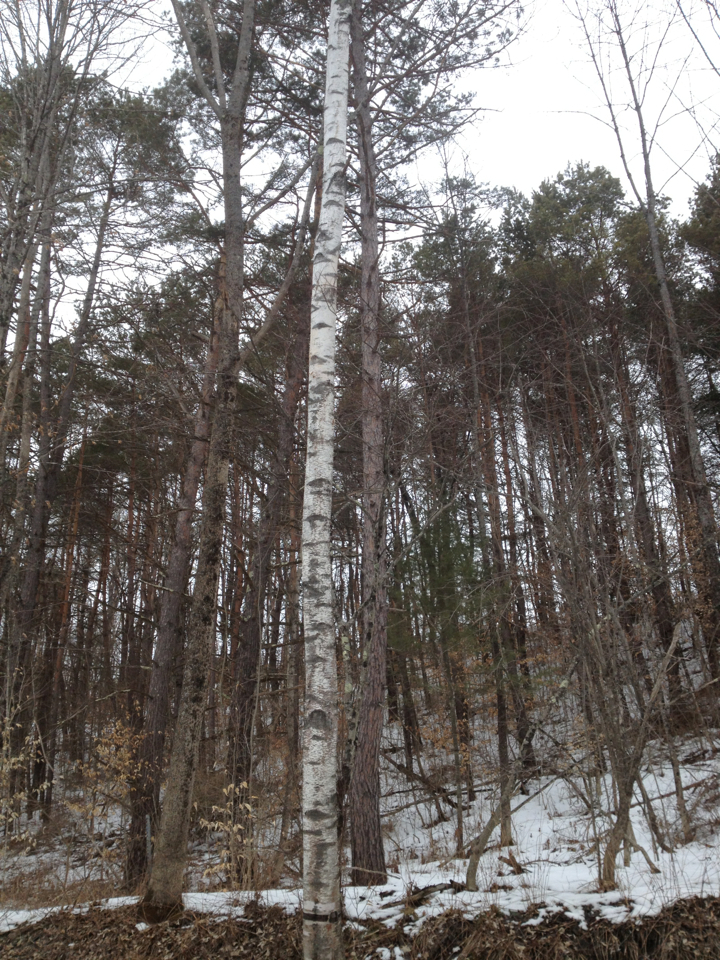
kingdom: Plantae
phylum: Tracheophyta
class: Magnoliopsida
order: Fagales
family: Betulaceae
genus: Betula
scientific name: Betula papyrifera
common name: Paper birch
